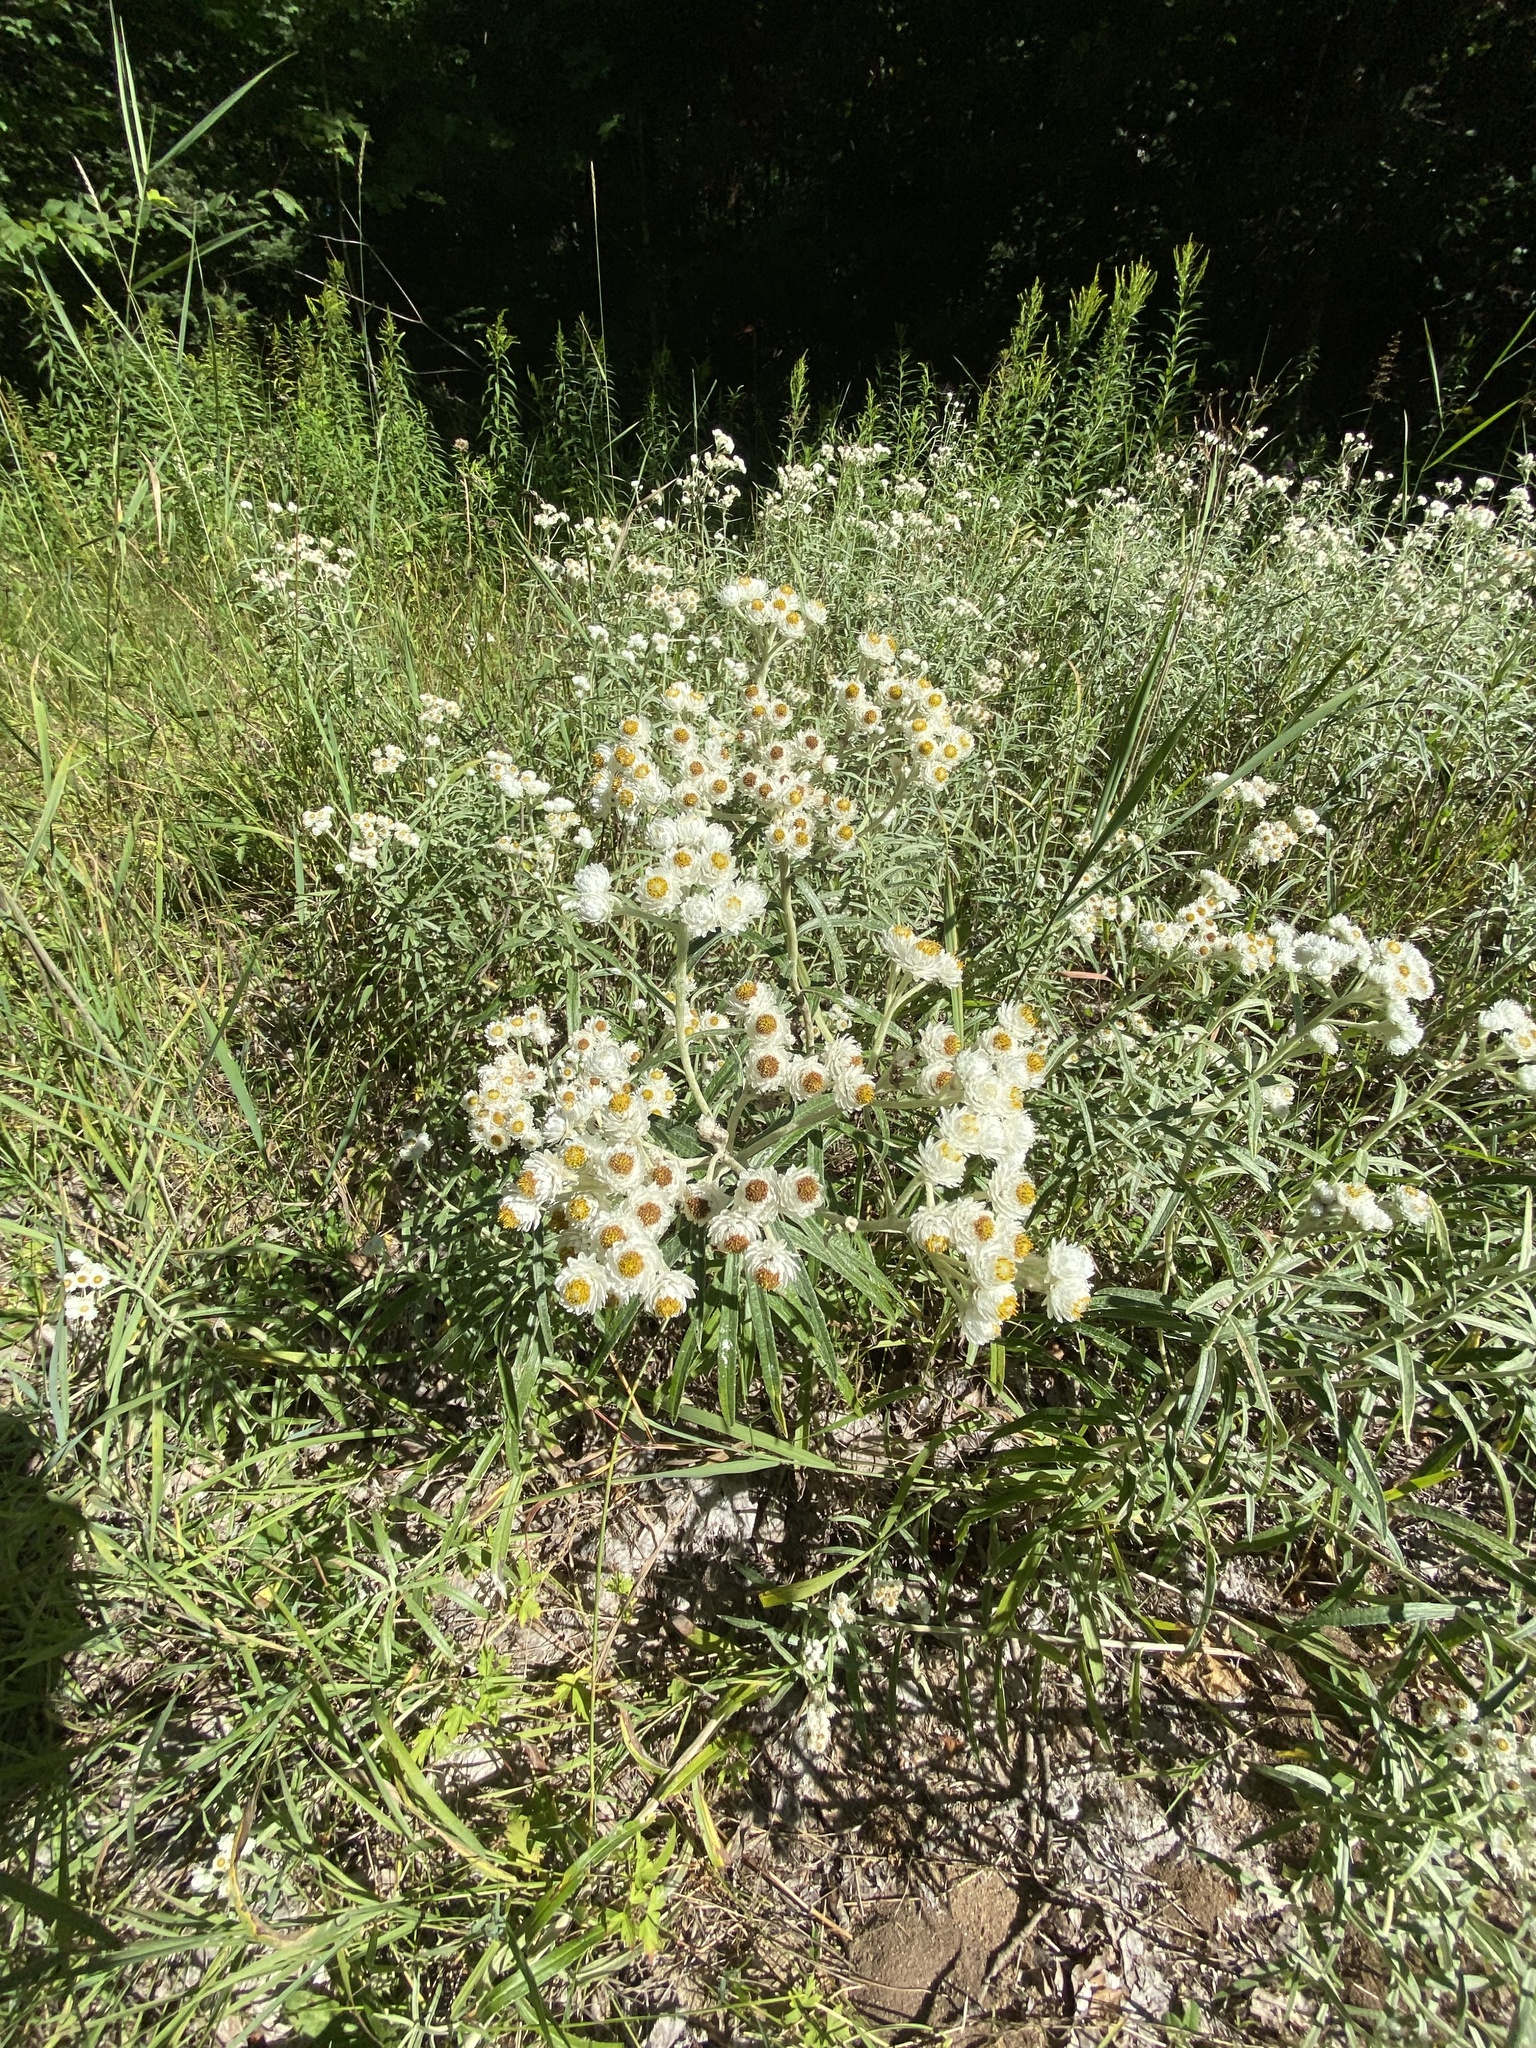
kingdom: Plantae
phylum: Tracheophyta
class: Magnoliopsida
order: Asterales
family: Asteraceae
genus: Anaphalis
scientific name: Anaphalis margaritacea
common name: Pearly everlasting
